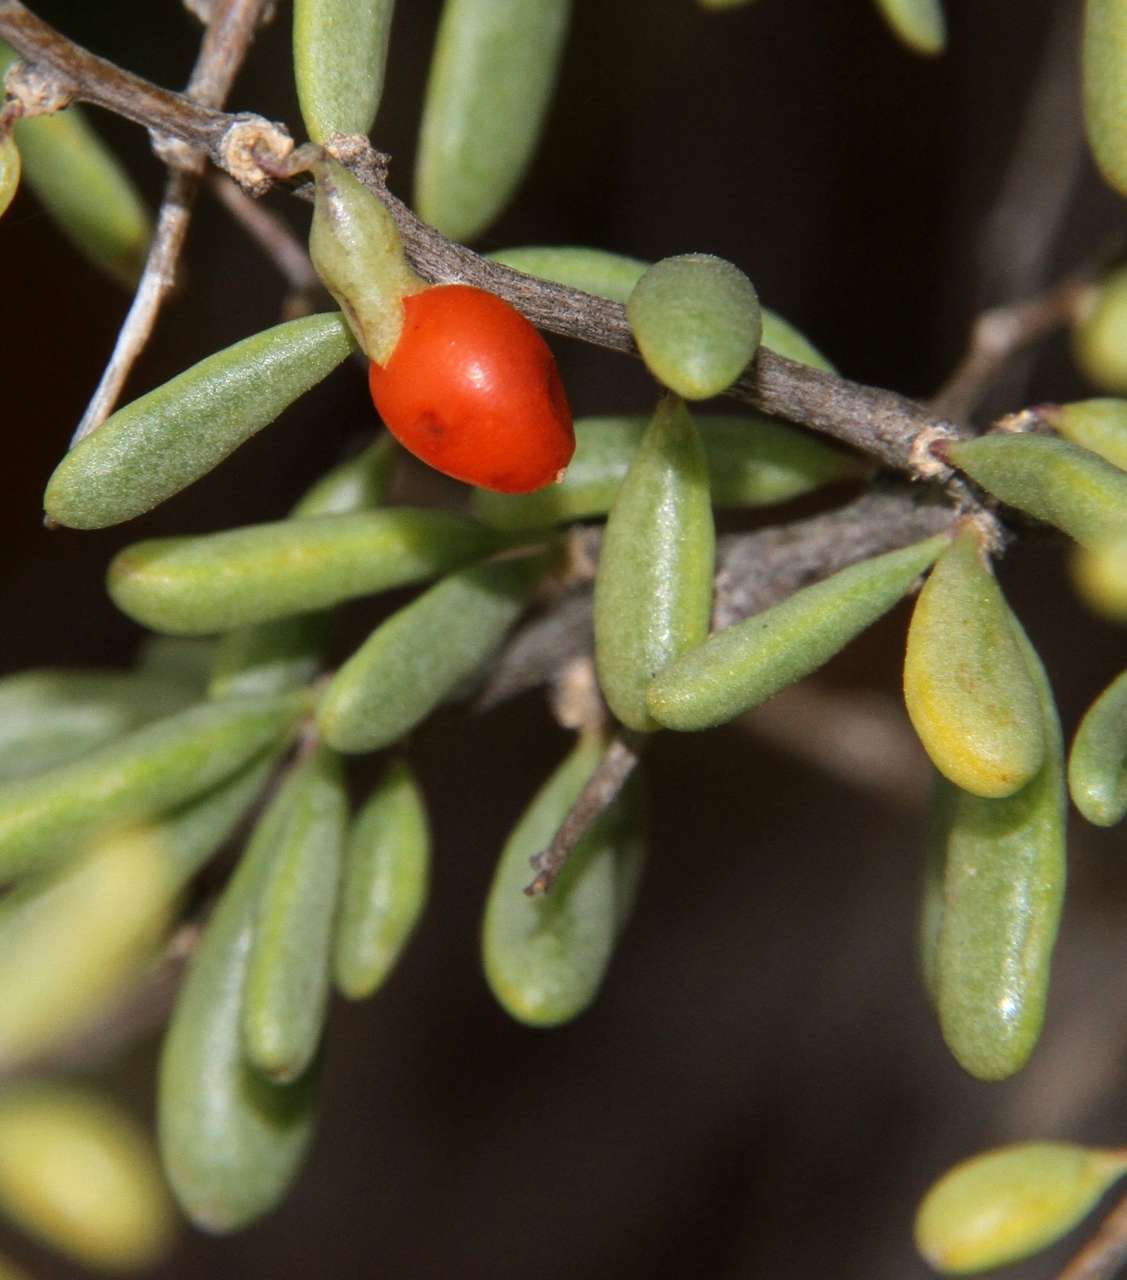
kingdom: Plantae
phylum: Tracheophyta
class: Magnoliopsida
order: Solanales
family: Solanaceae
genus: Lycium
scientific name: Lycium australe
